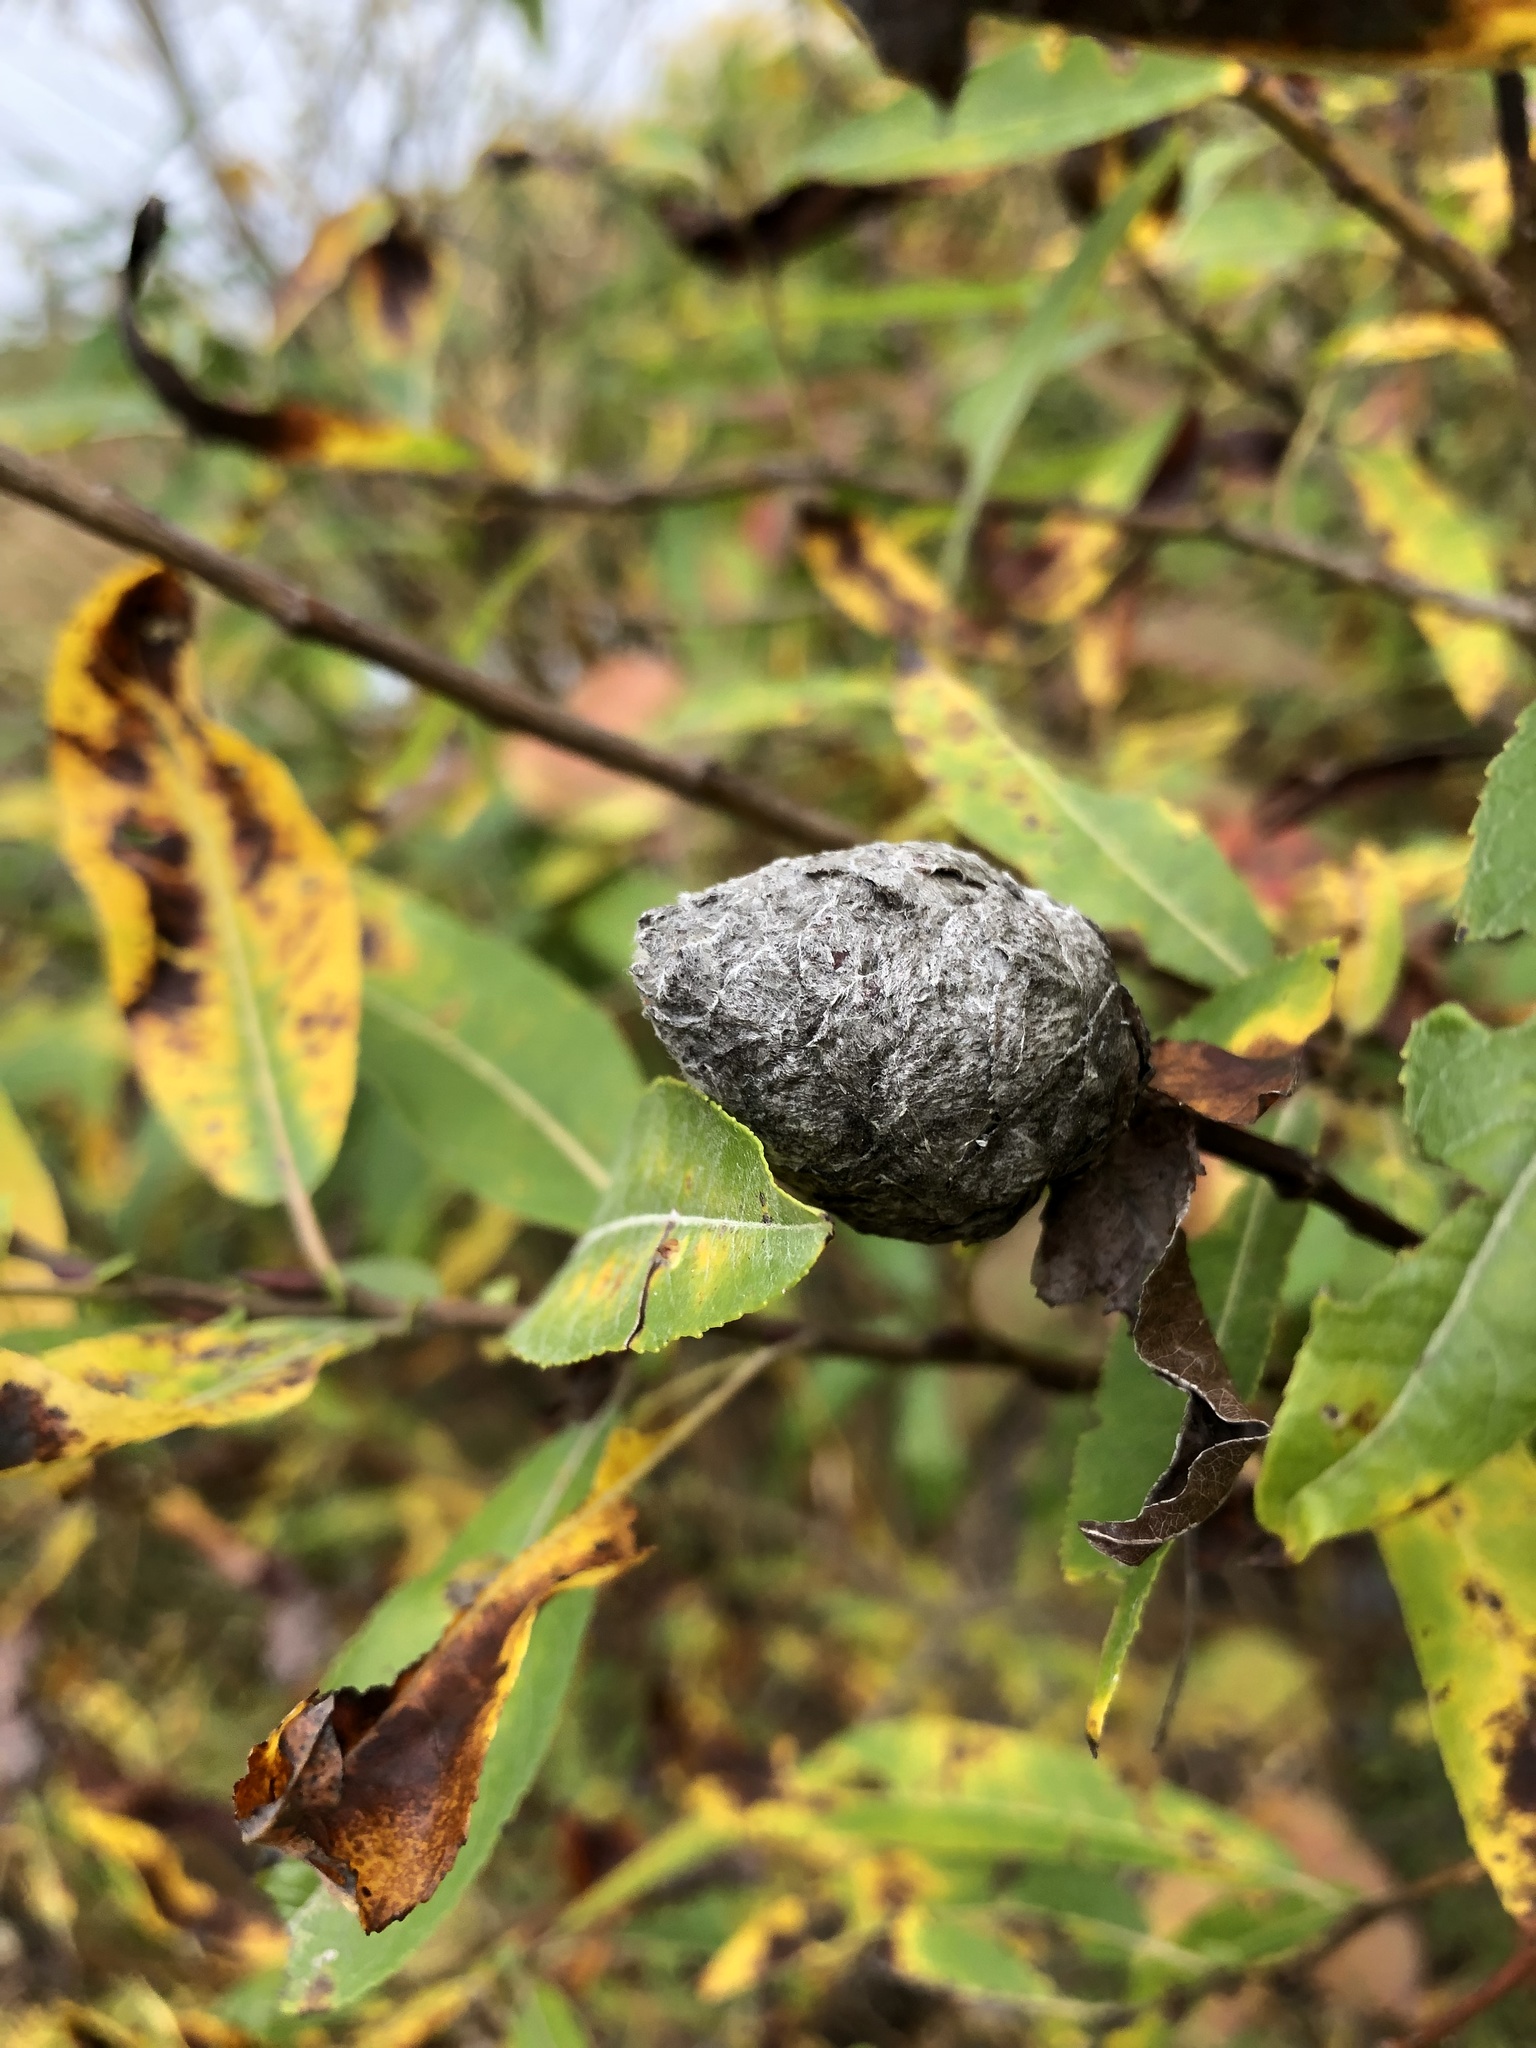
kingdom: Animalia
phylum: Arthropoda
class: Insecta
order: Diptera
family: Cecidomyiidae
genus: Rabdophaga
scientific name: Rabdophaga strobiloides
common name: Willow pinecone gall midge
